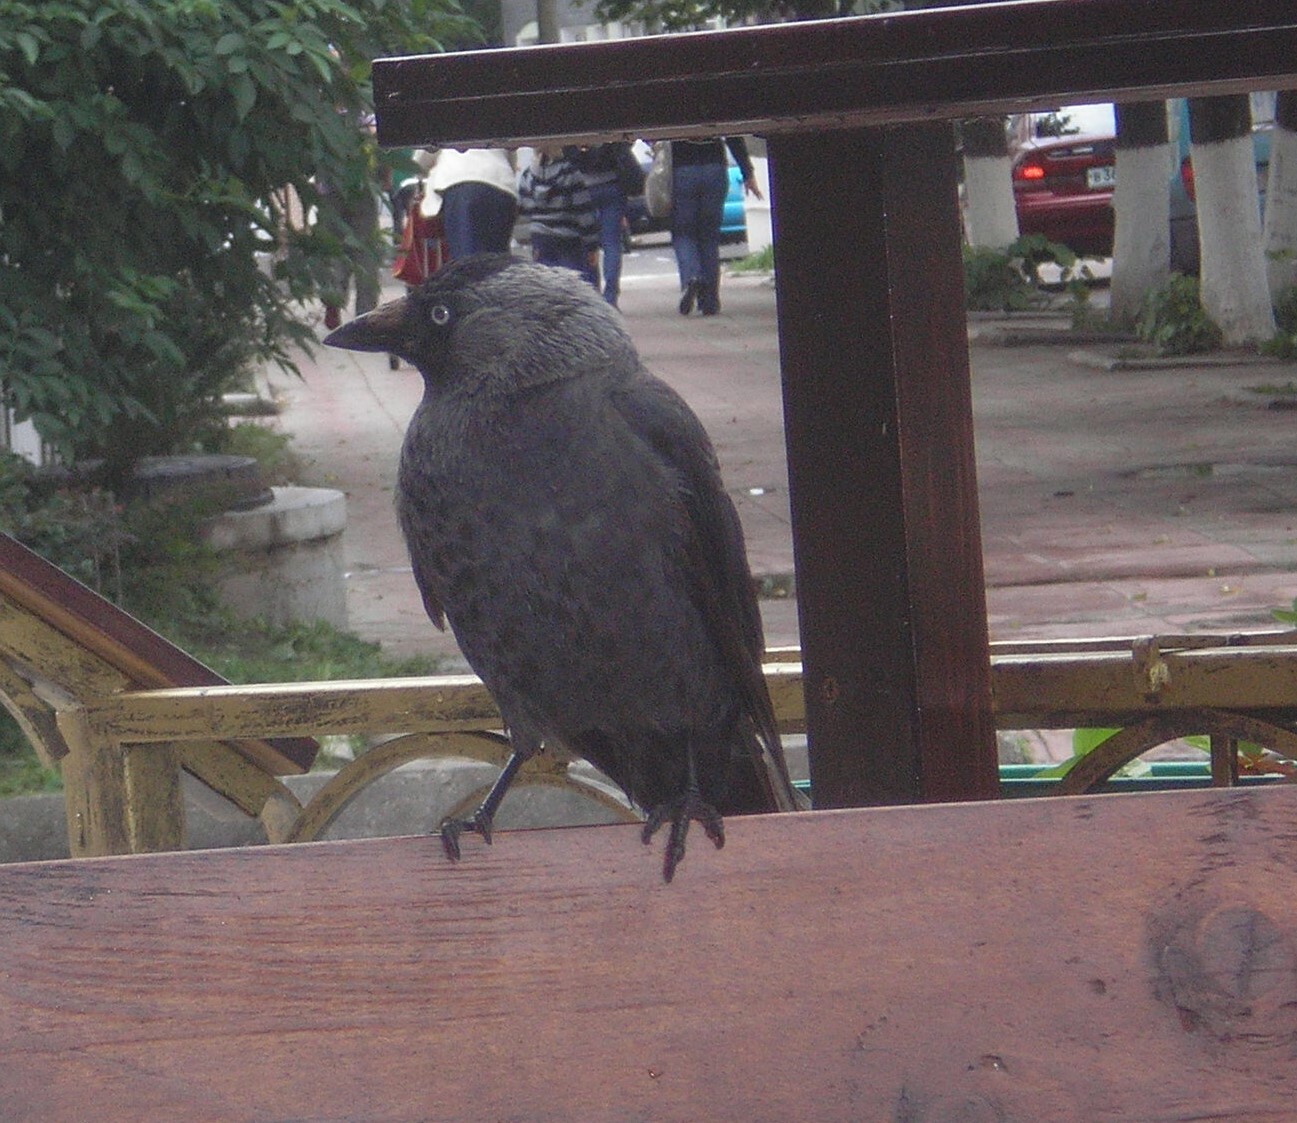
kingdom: Animalia
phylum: Chordata
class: Aves
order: Passeriformes
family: Corvidae
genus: Coloeus
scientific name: Coloeus monedula
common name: Western jackdaw
